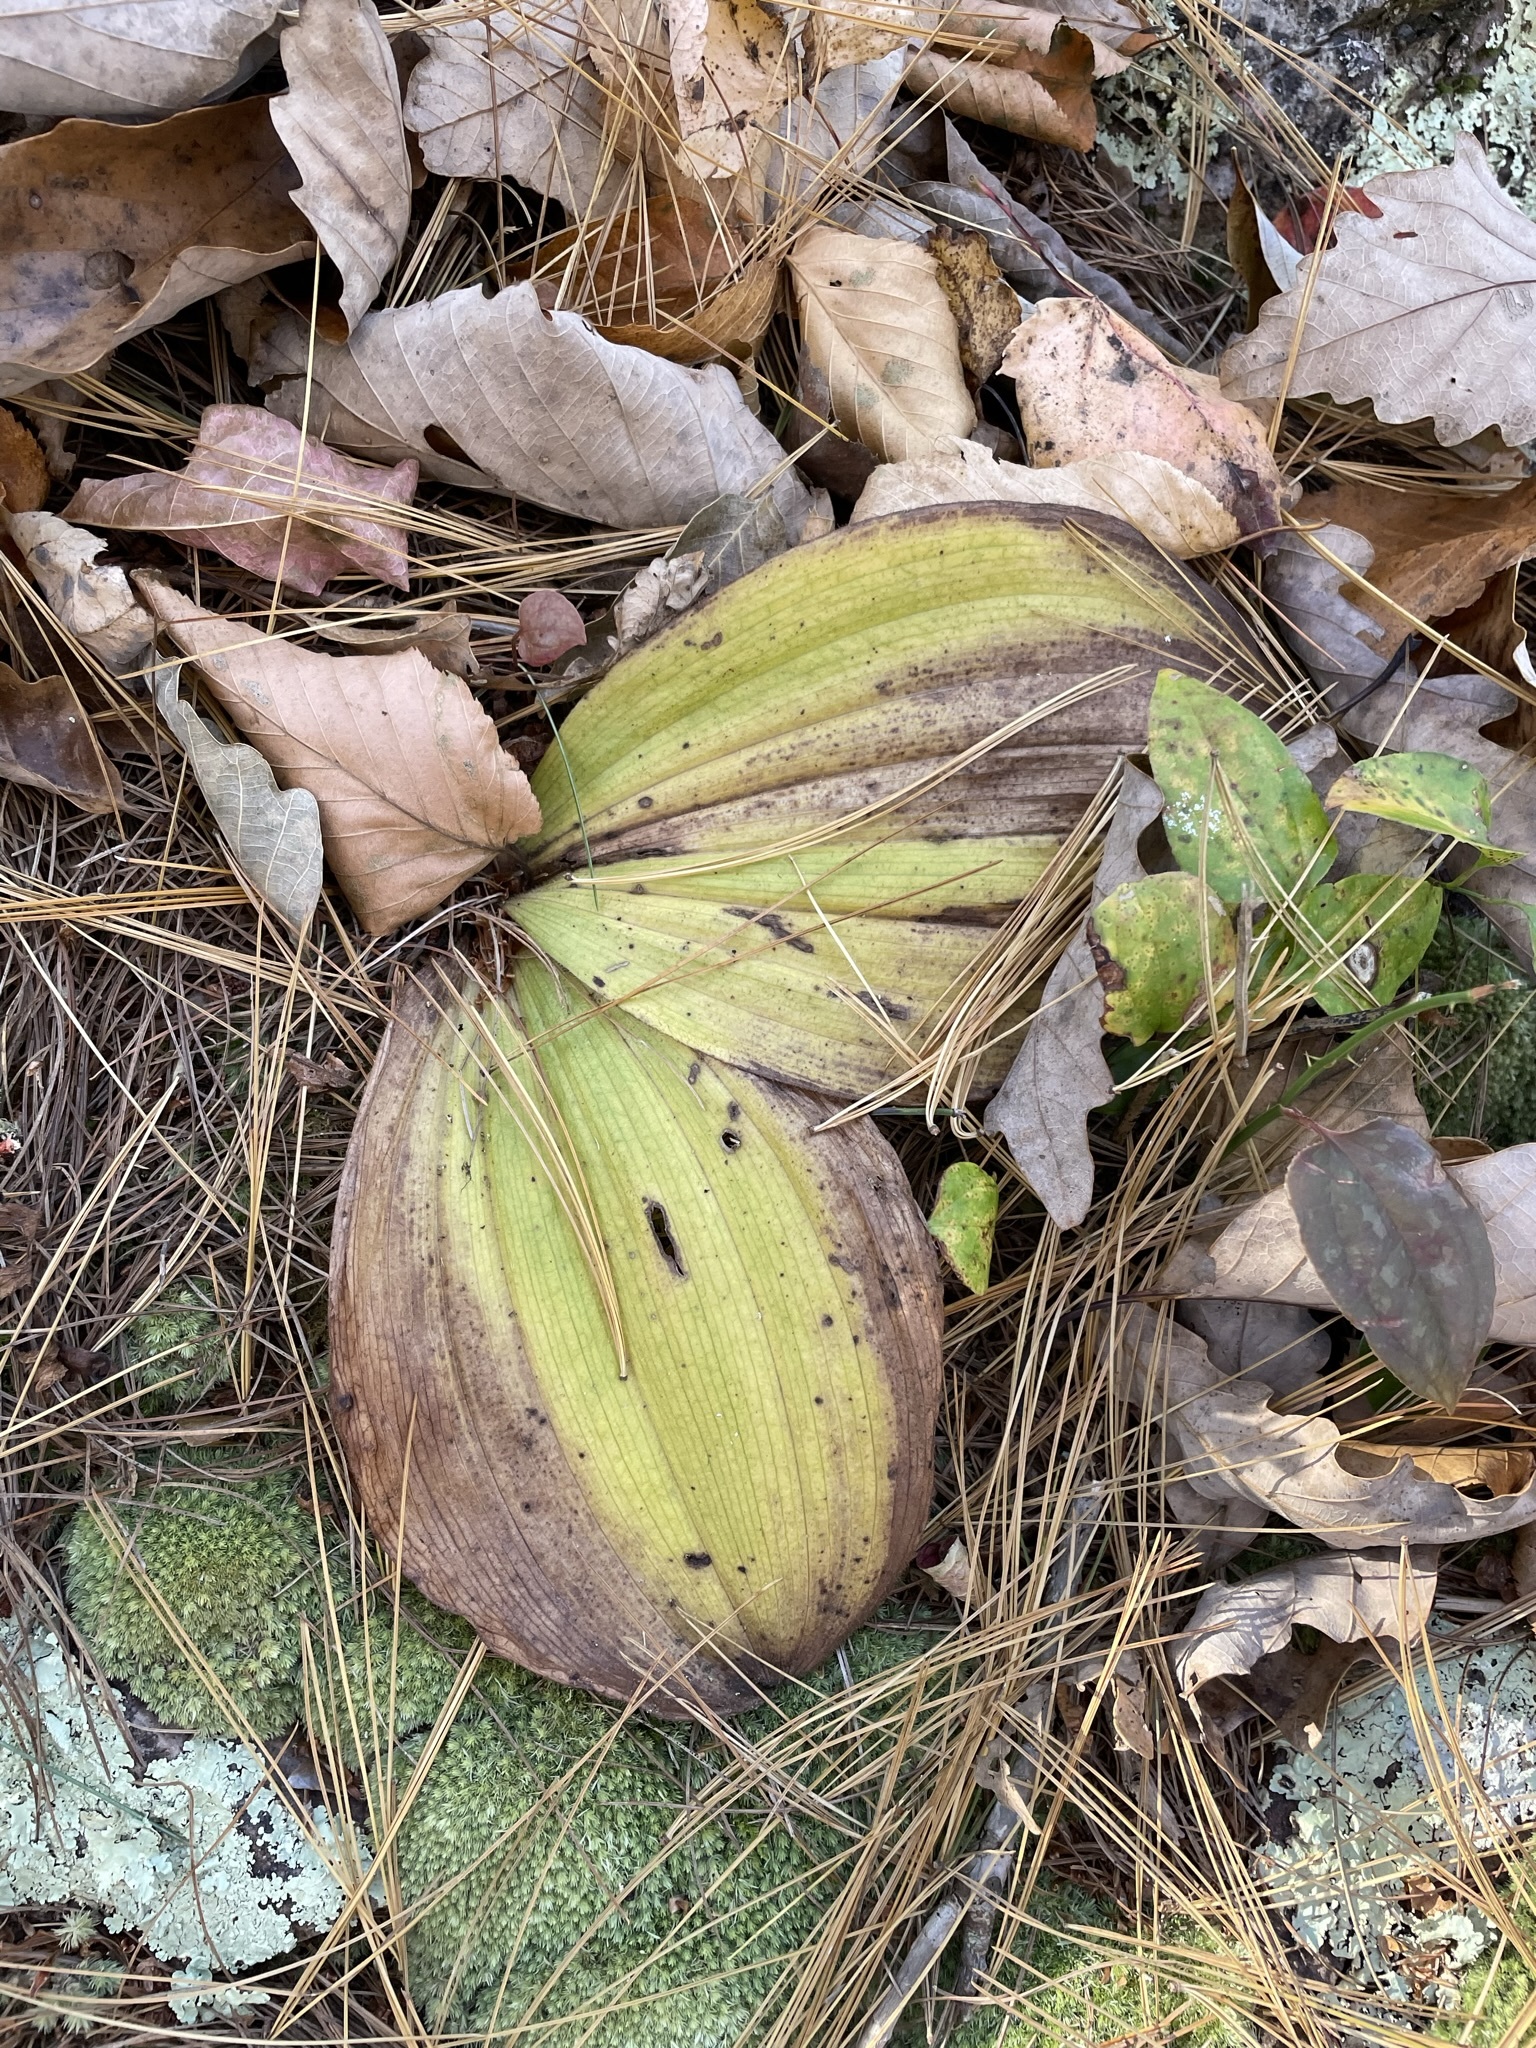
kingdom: Plantae
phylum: Tracheophyta
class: Liliopsida
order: Asparagales
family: Orchidaceae
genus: Cypripedium
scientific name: Cypripedium acaule
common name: Pink lady's-slipper
